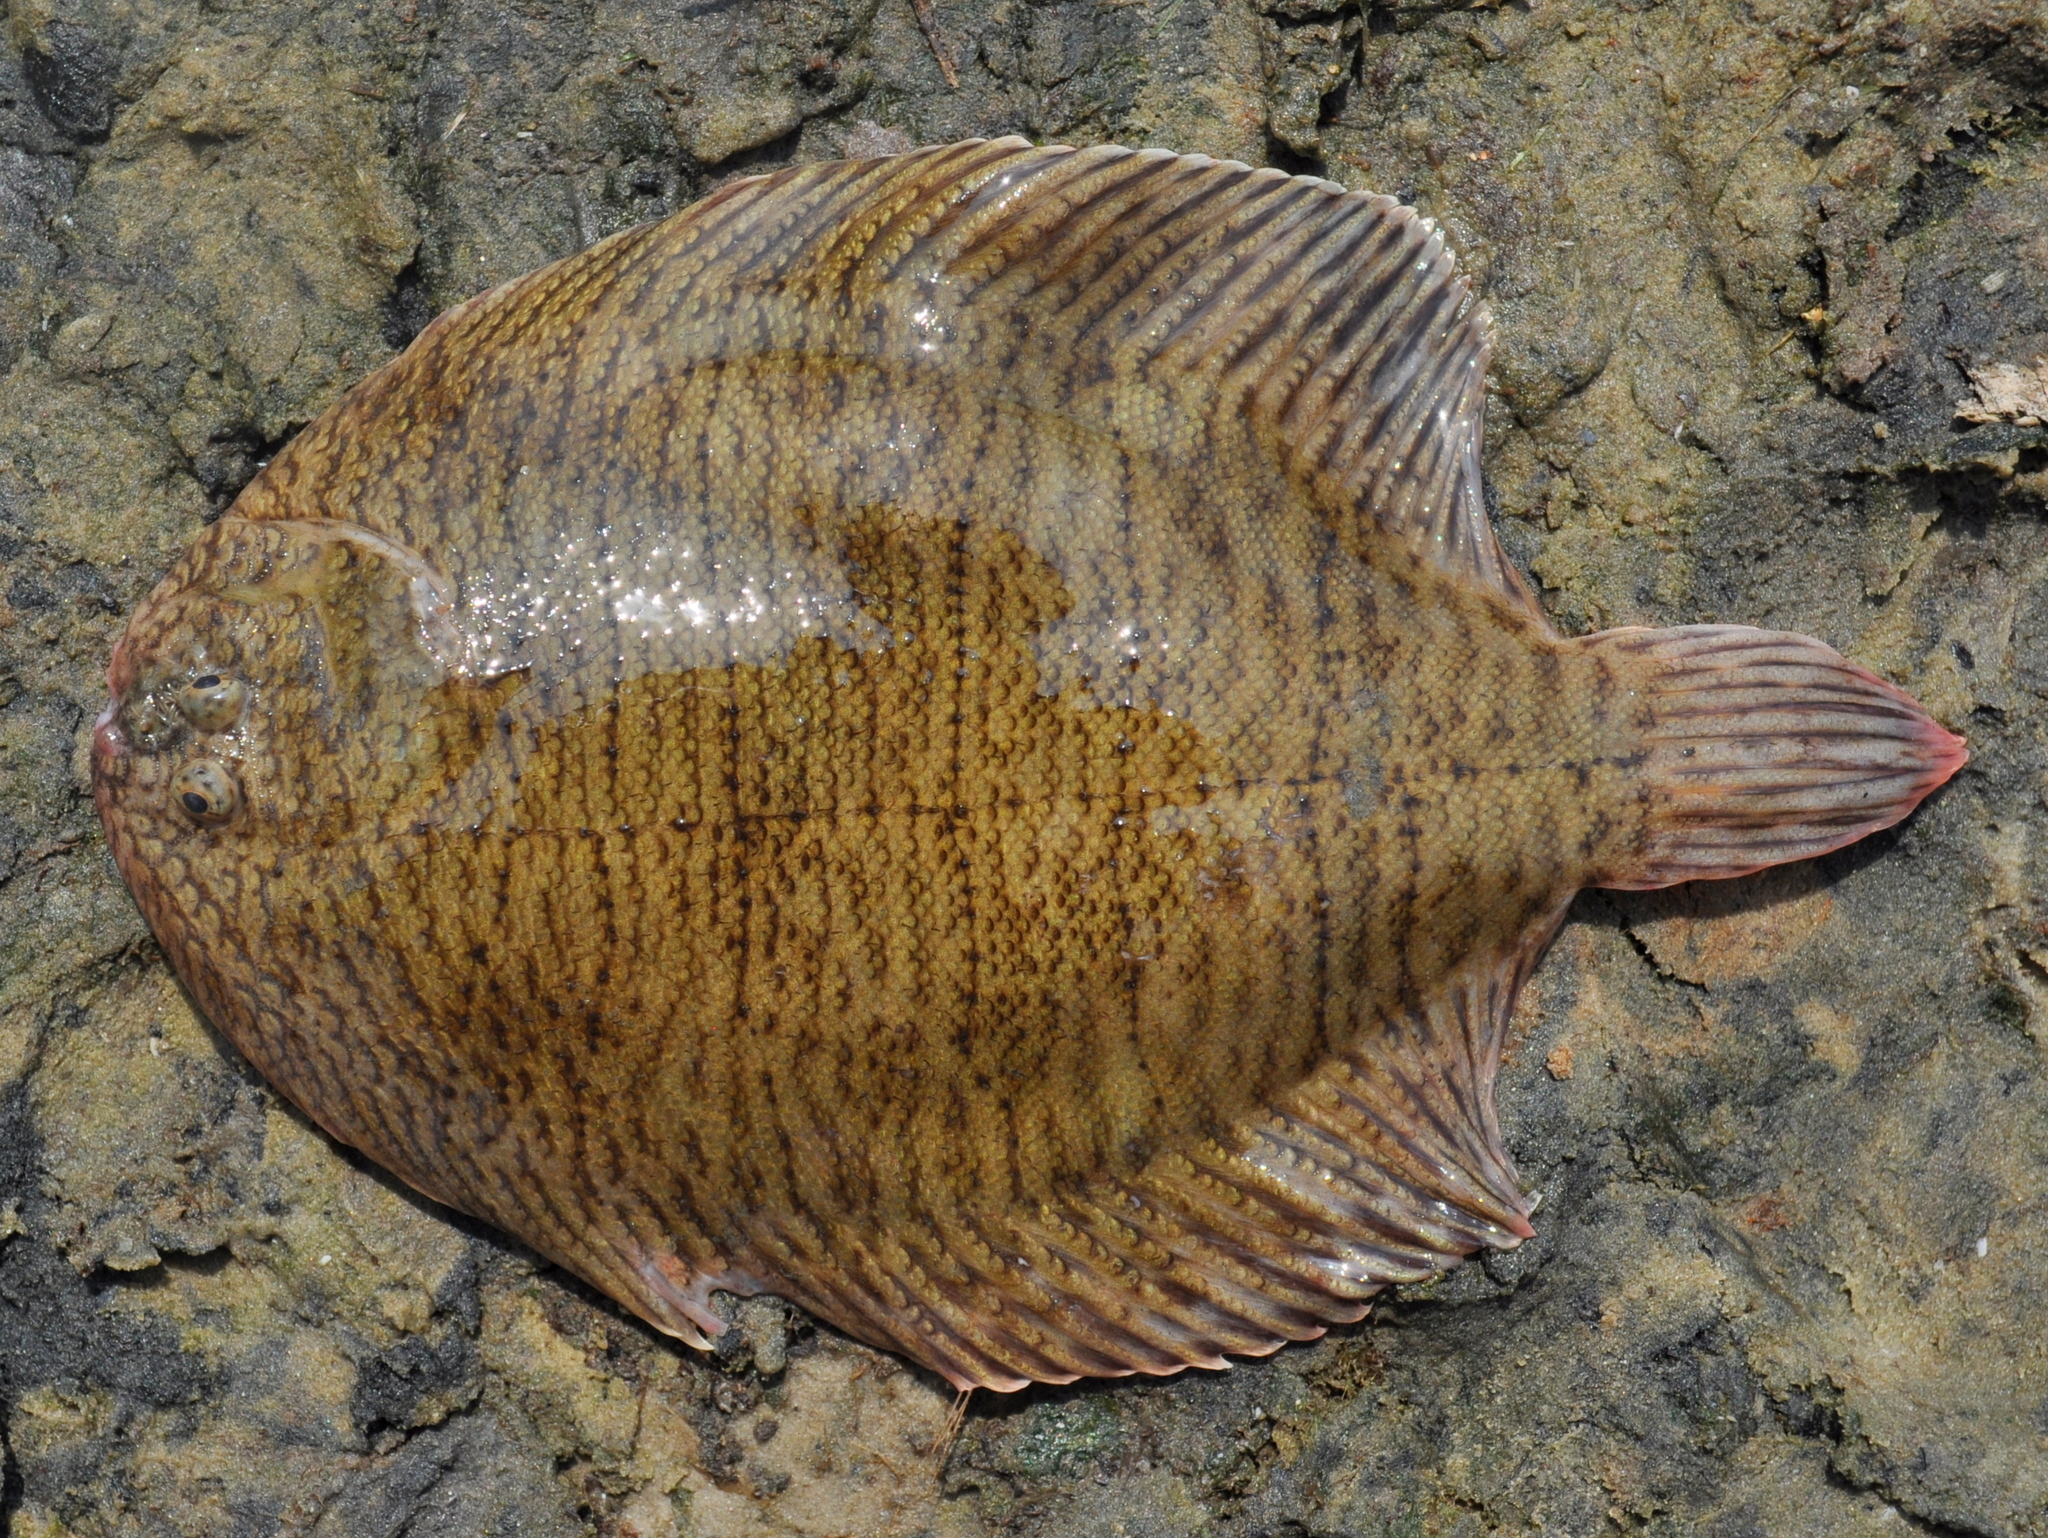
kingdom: Animalia
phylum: Chordata
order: Pleuronectiformes
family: Achiridae
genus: Catathyridium
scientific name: Catathyridium jenynsii
